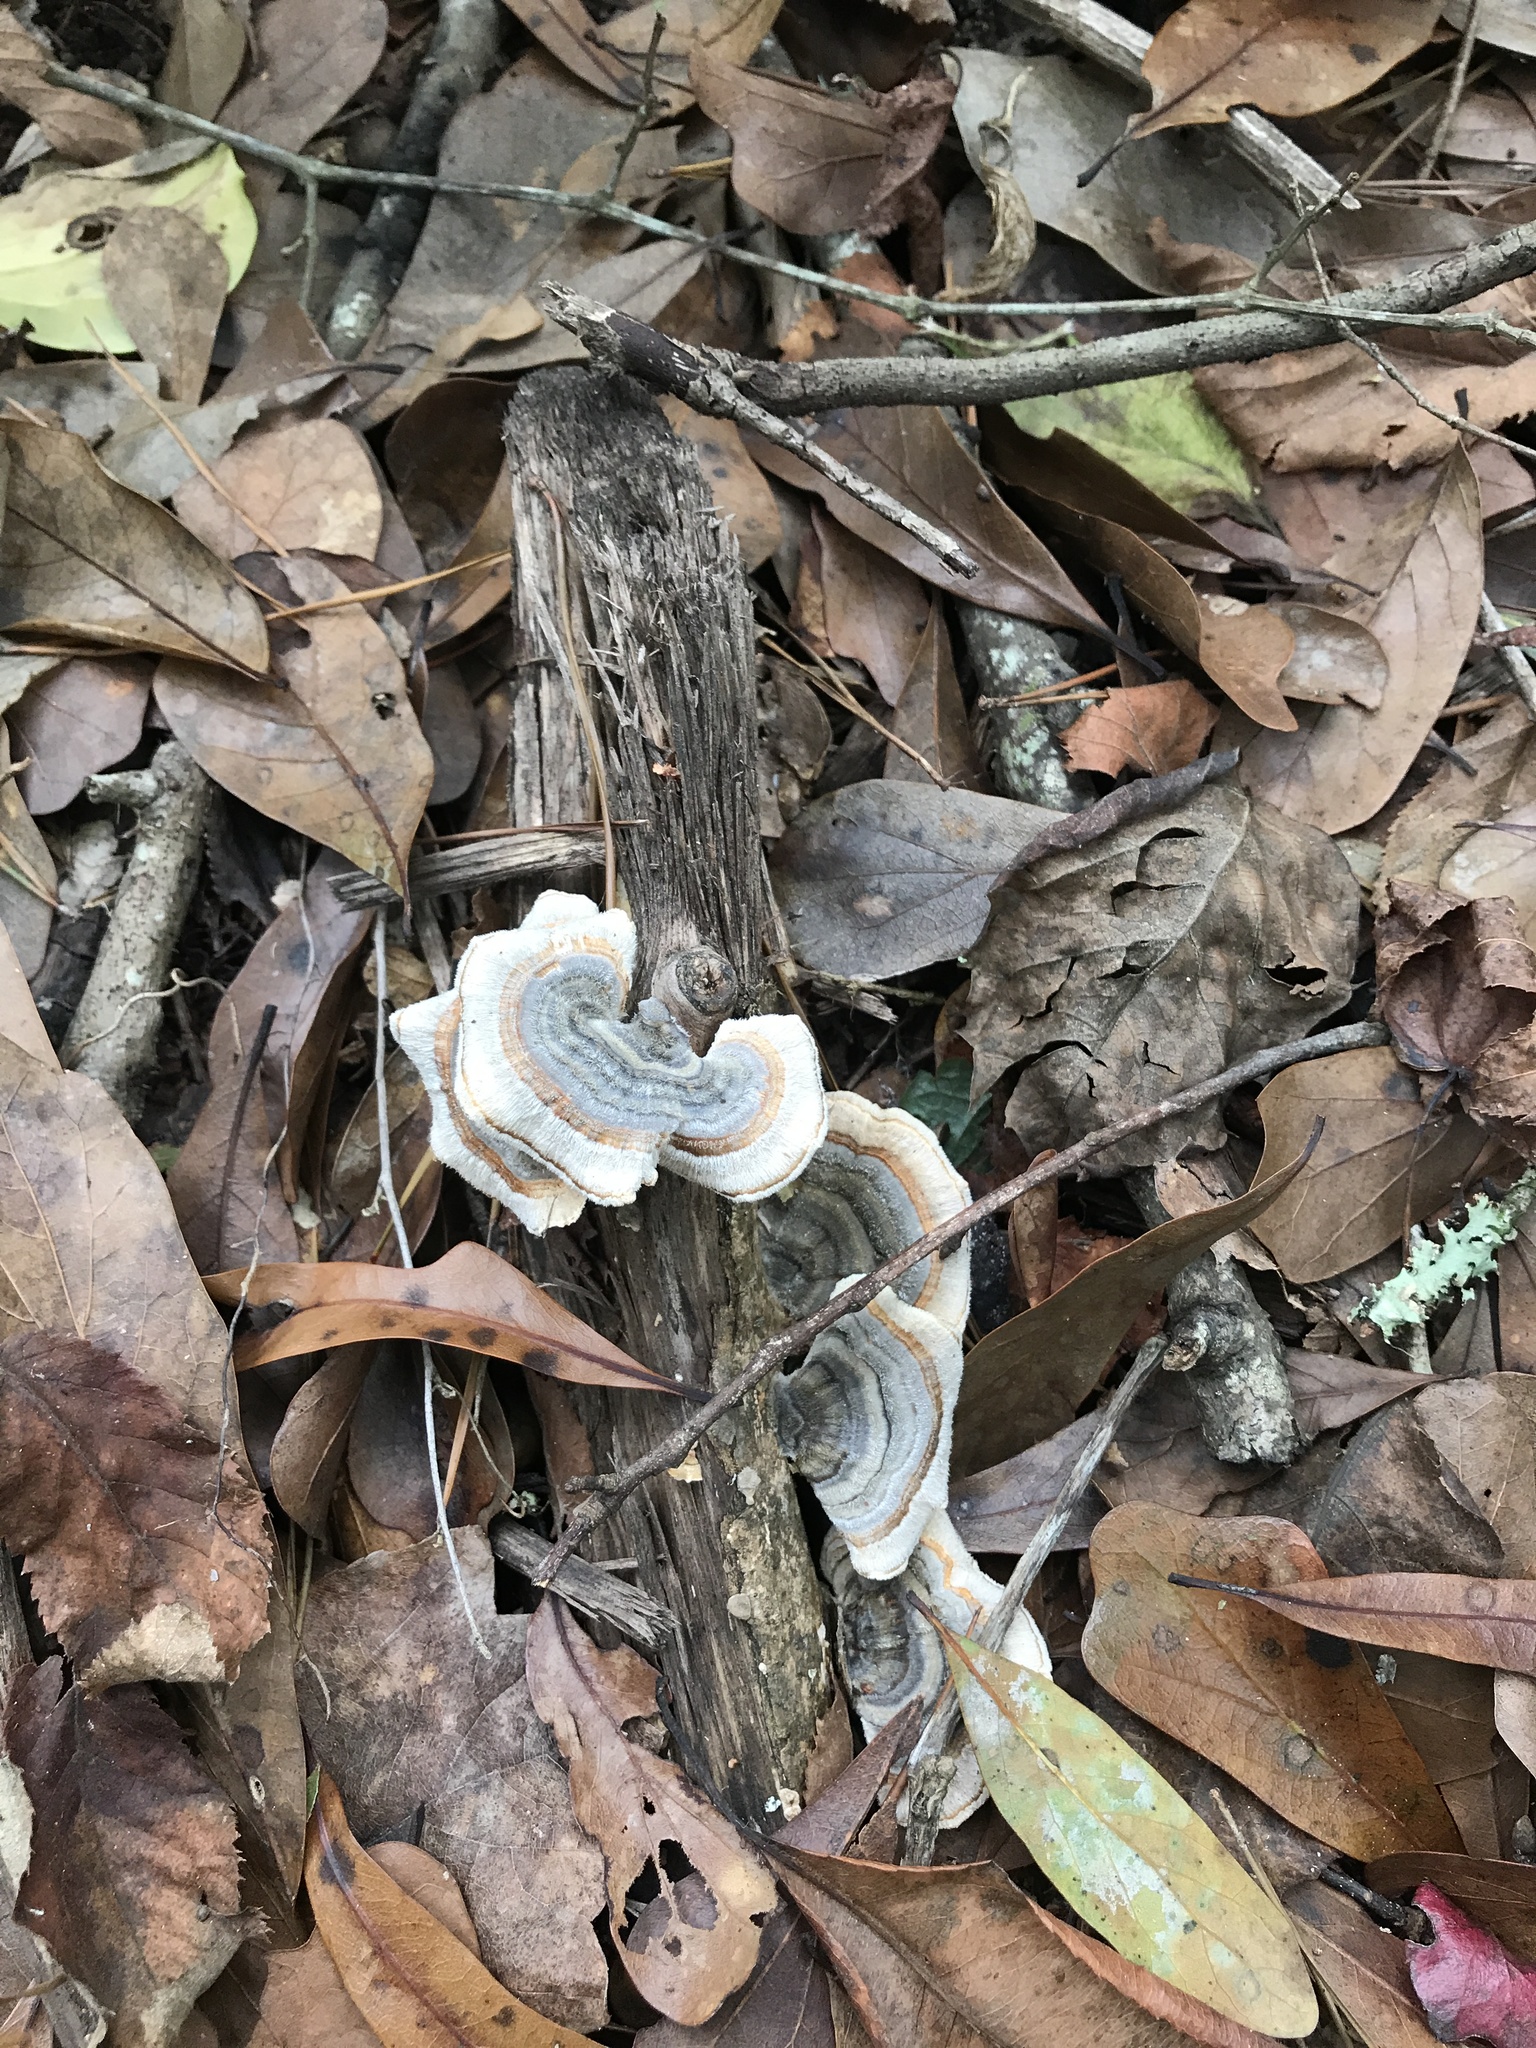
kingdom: Fungi
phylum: Basidiomycota
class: Agaricomycetes
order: Polyporales
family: Polyporaceae
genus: Trametes
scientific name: Trametes versicolor
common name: Turkeytail
